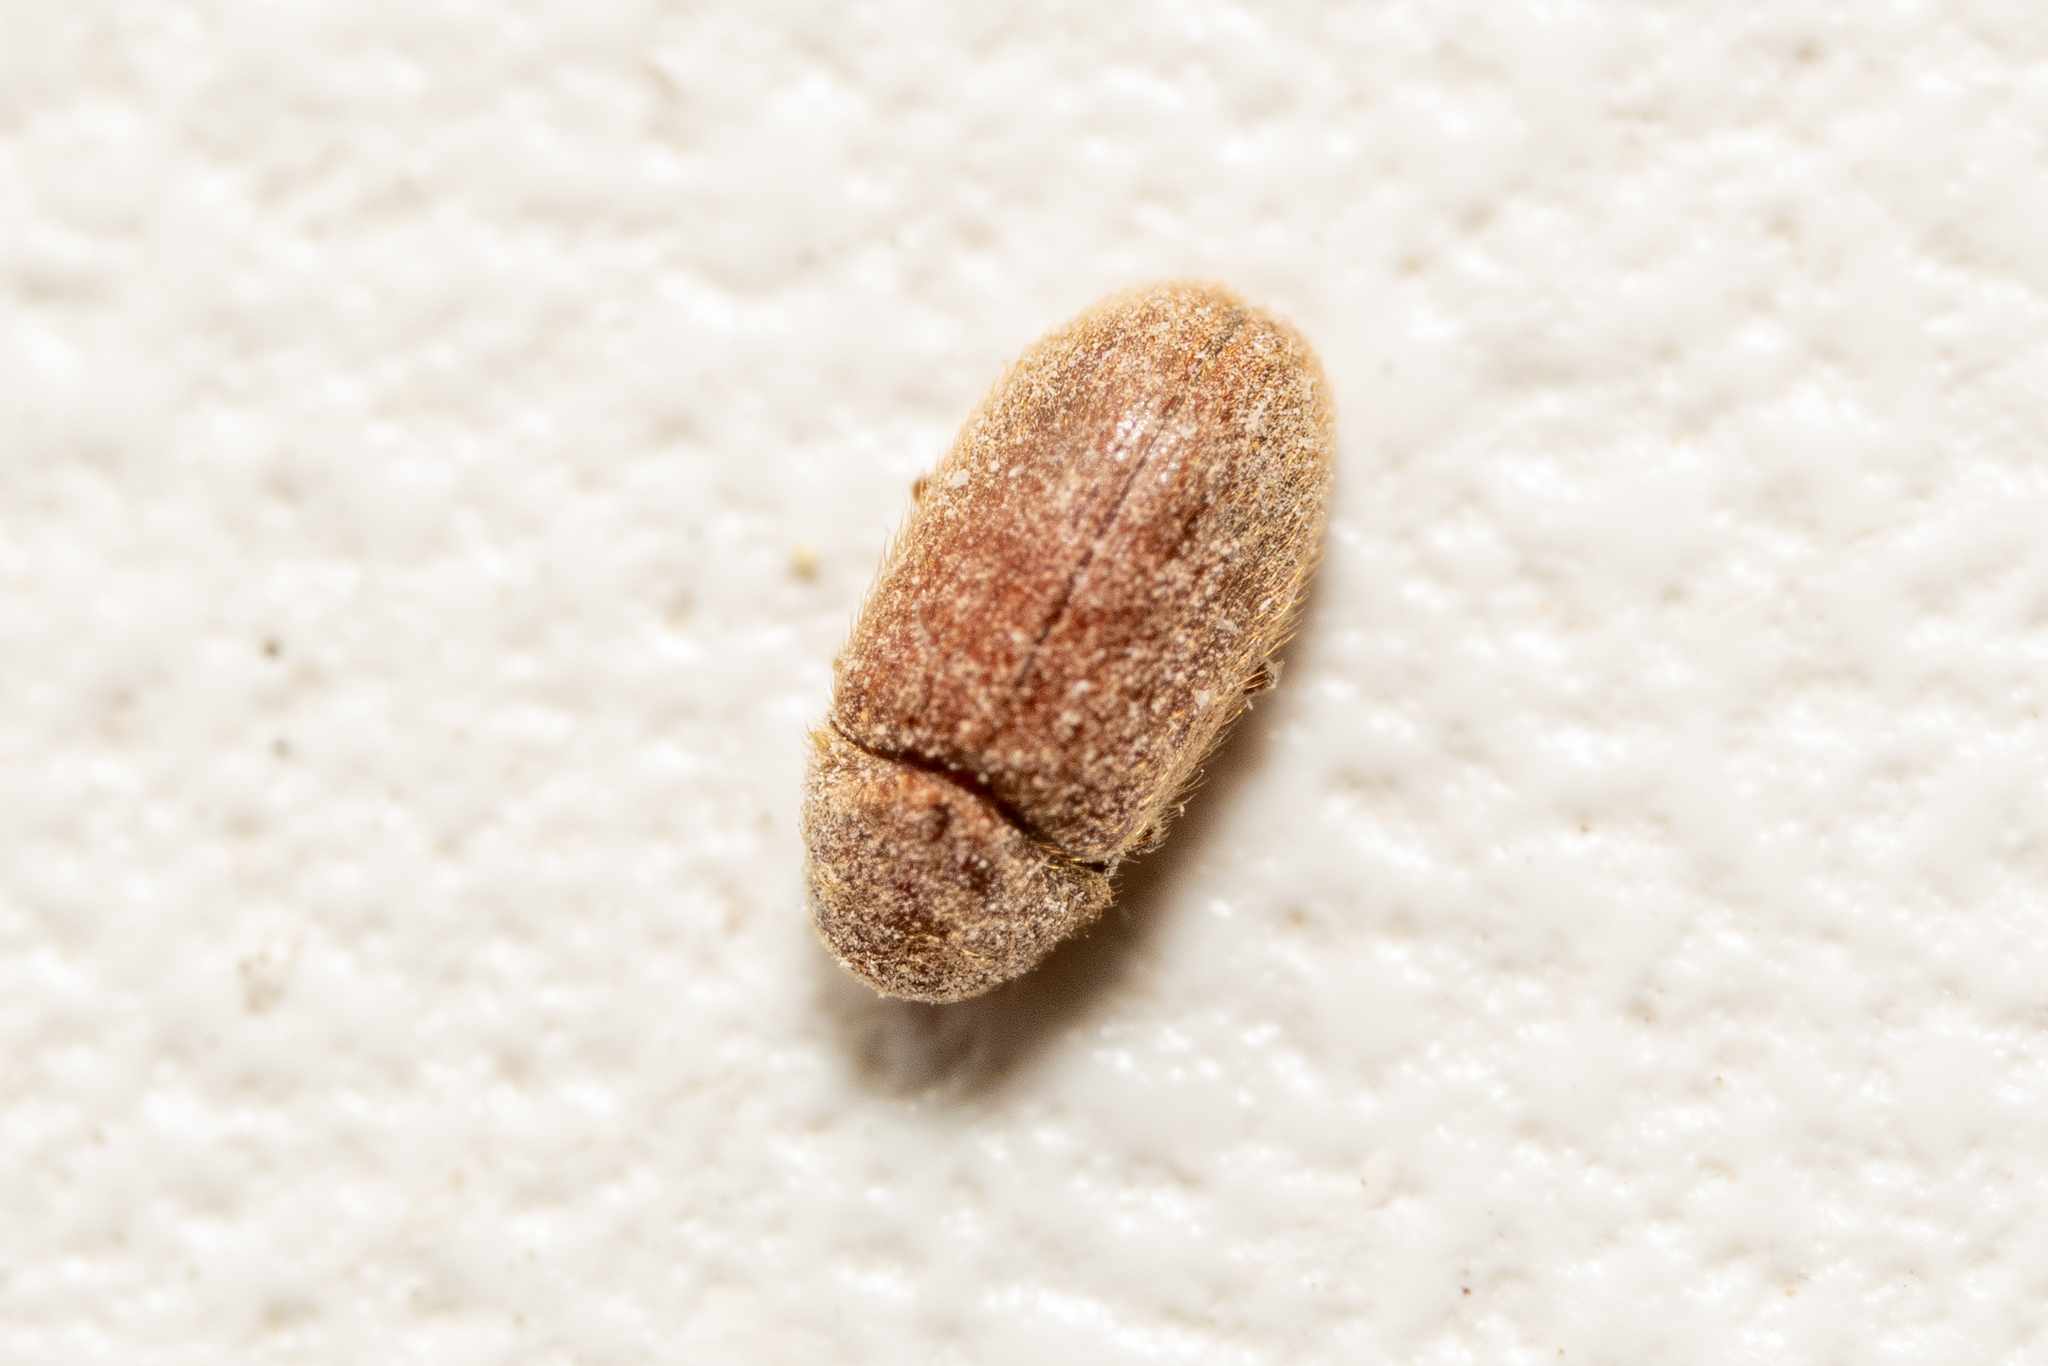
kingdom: Animalia
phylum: Arthropoda
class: Insecta
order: Coleoptera
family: Anobiidae
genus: Stegobium
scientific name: Stegobium paniceum
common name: Drugstore beetle
